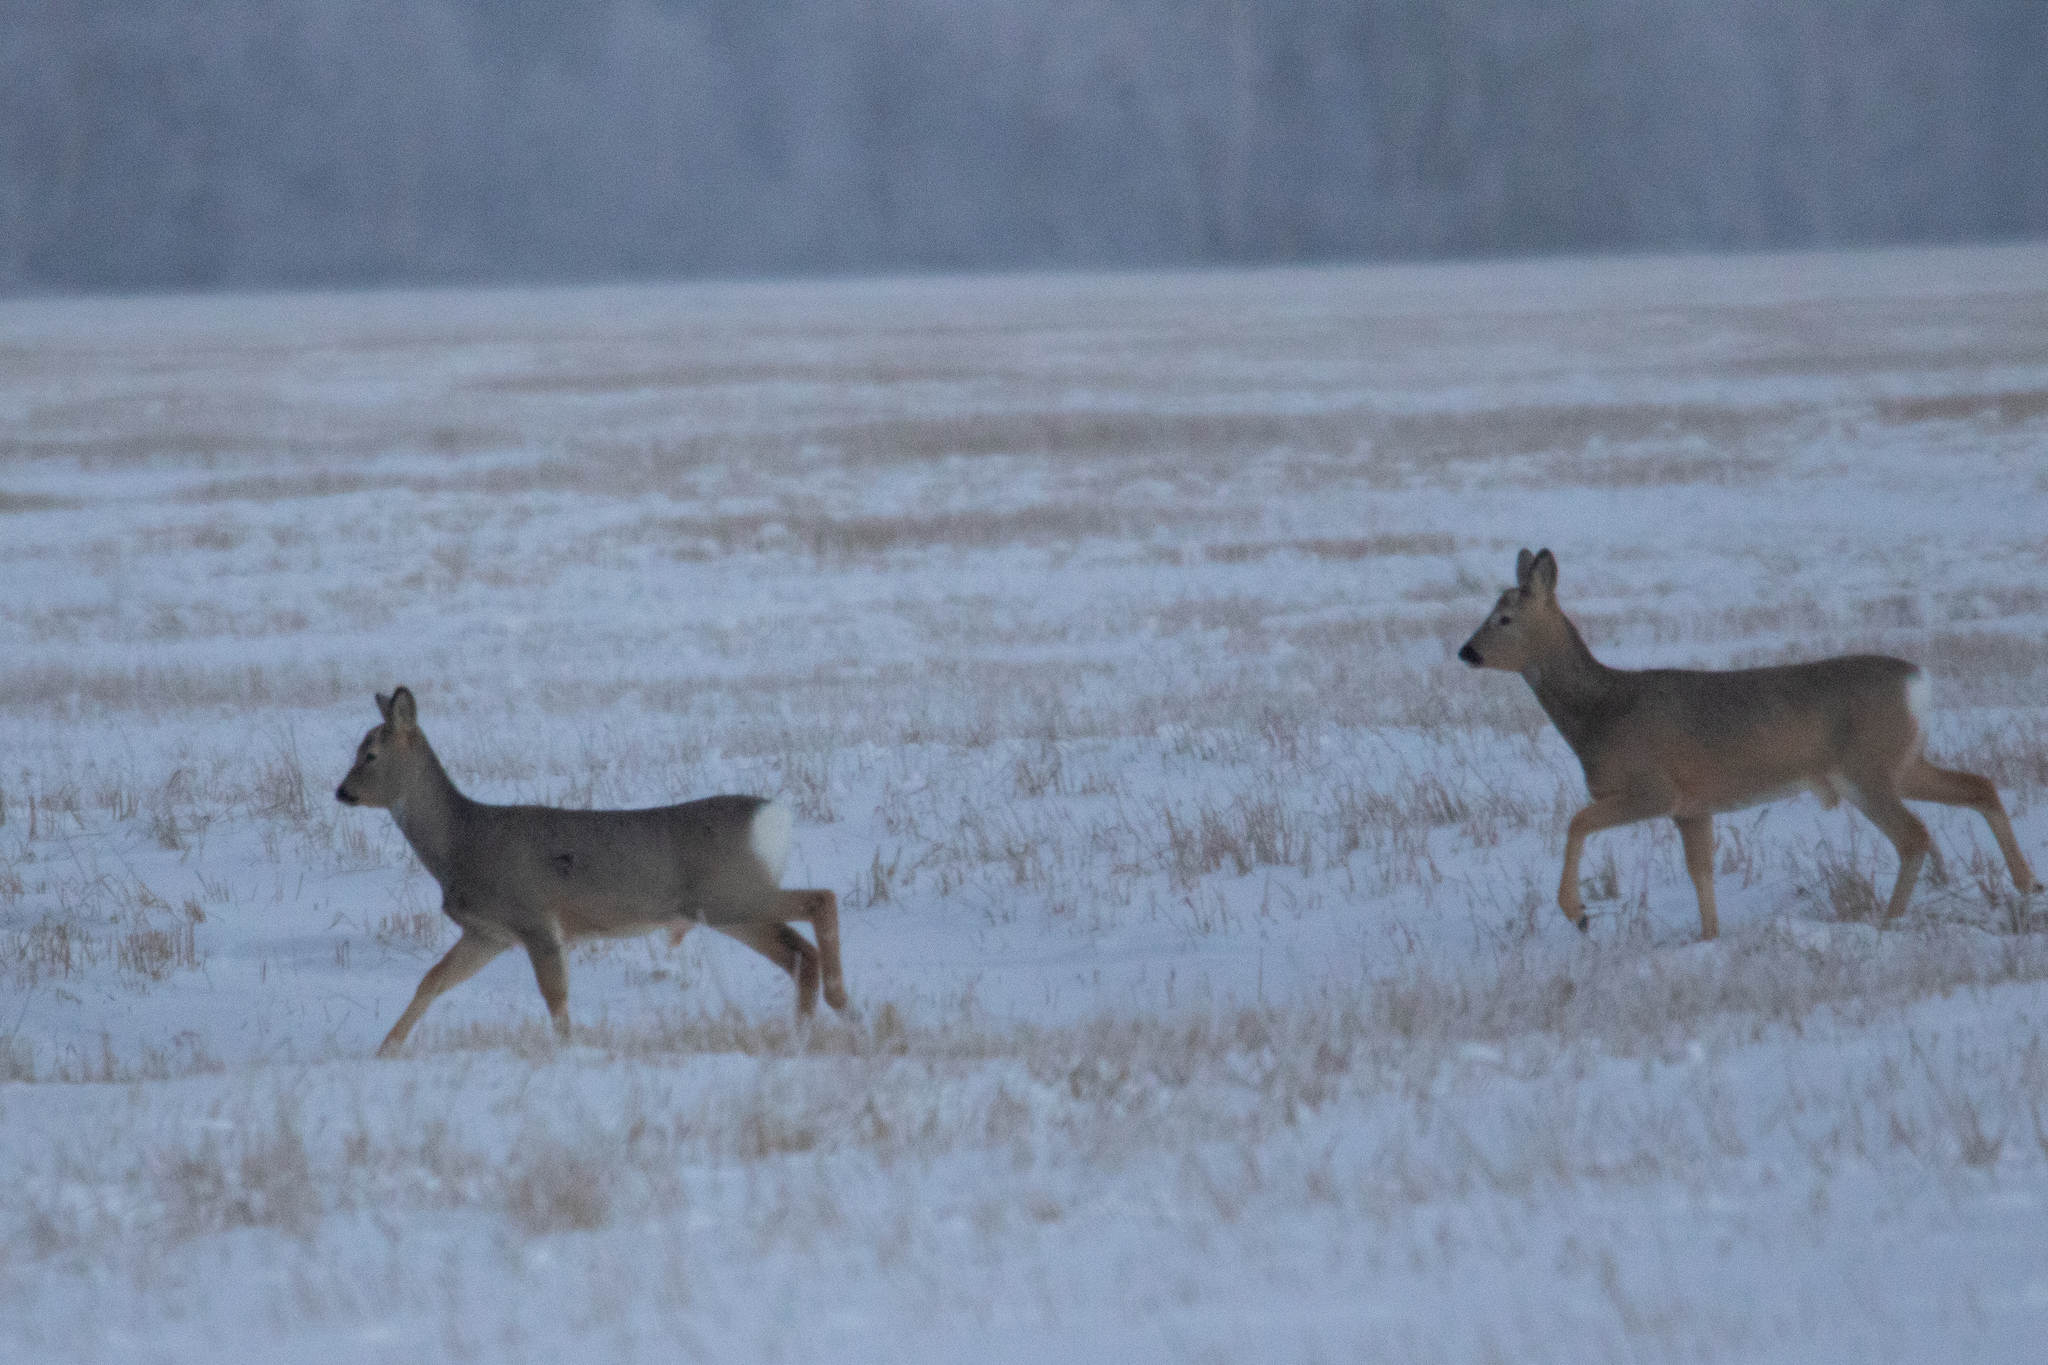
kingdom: Animalia
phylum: Chordata
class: Mammalia
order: Artiodactyla
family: Cervidae
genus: Capreolus
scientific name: Capreolus pygargus
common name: Siberian roe
